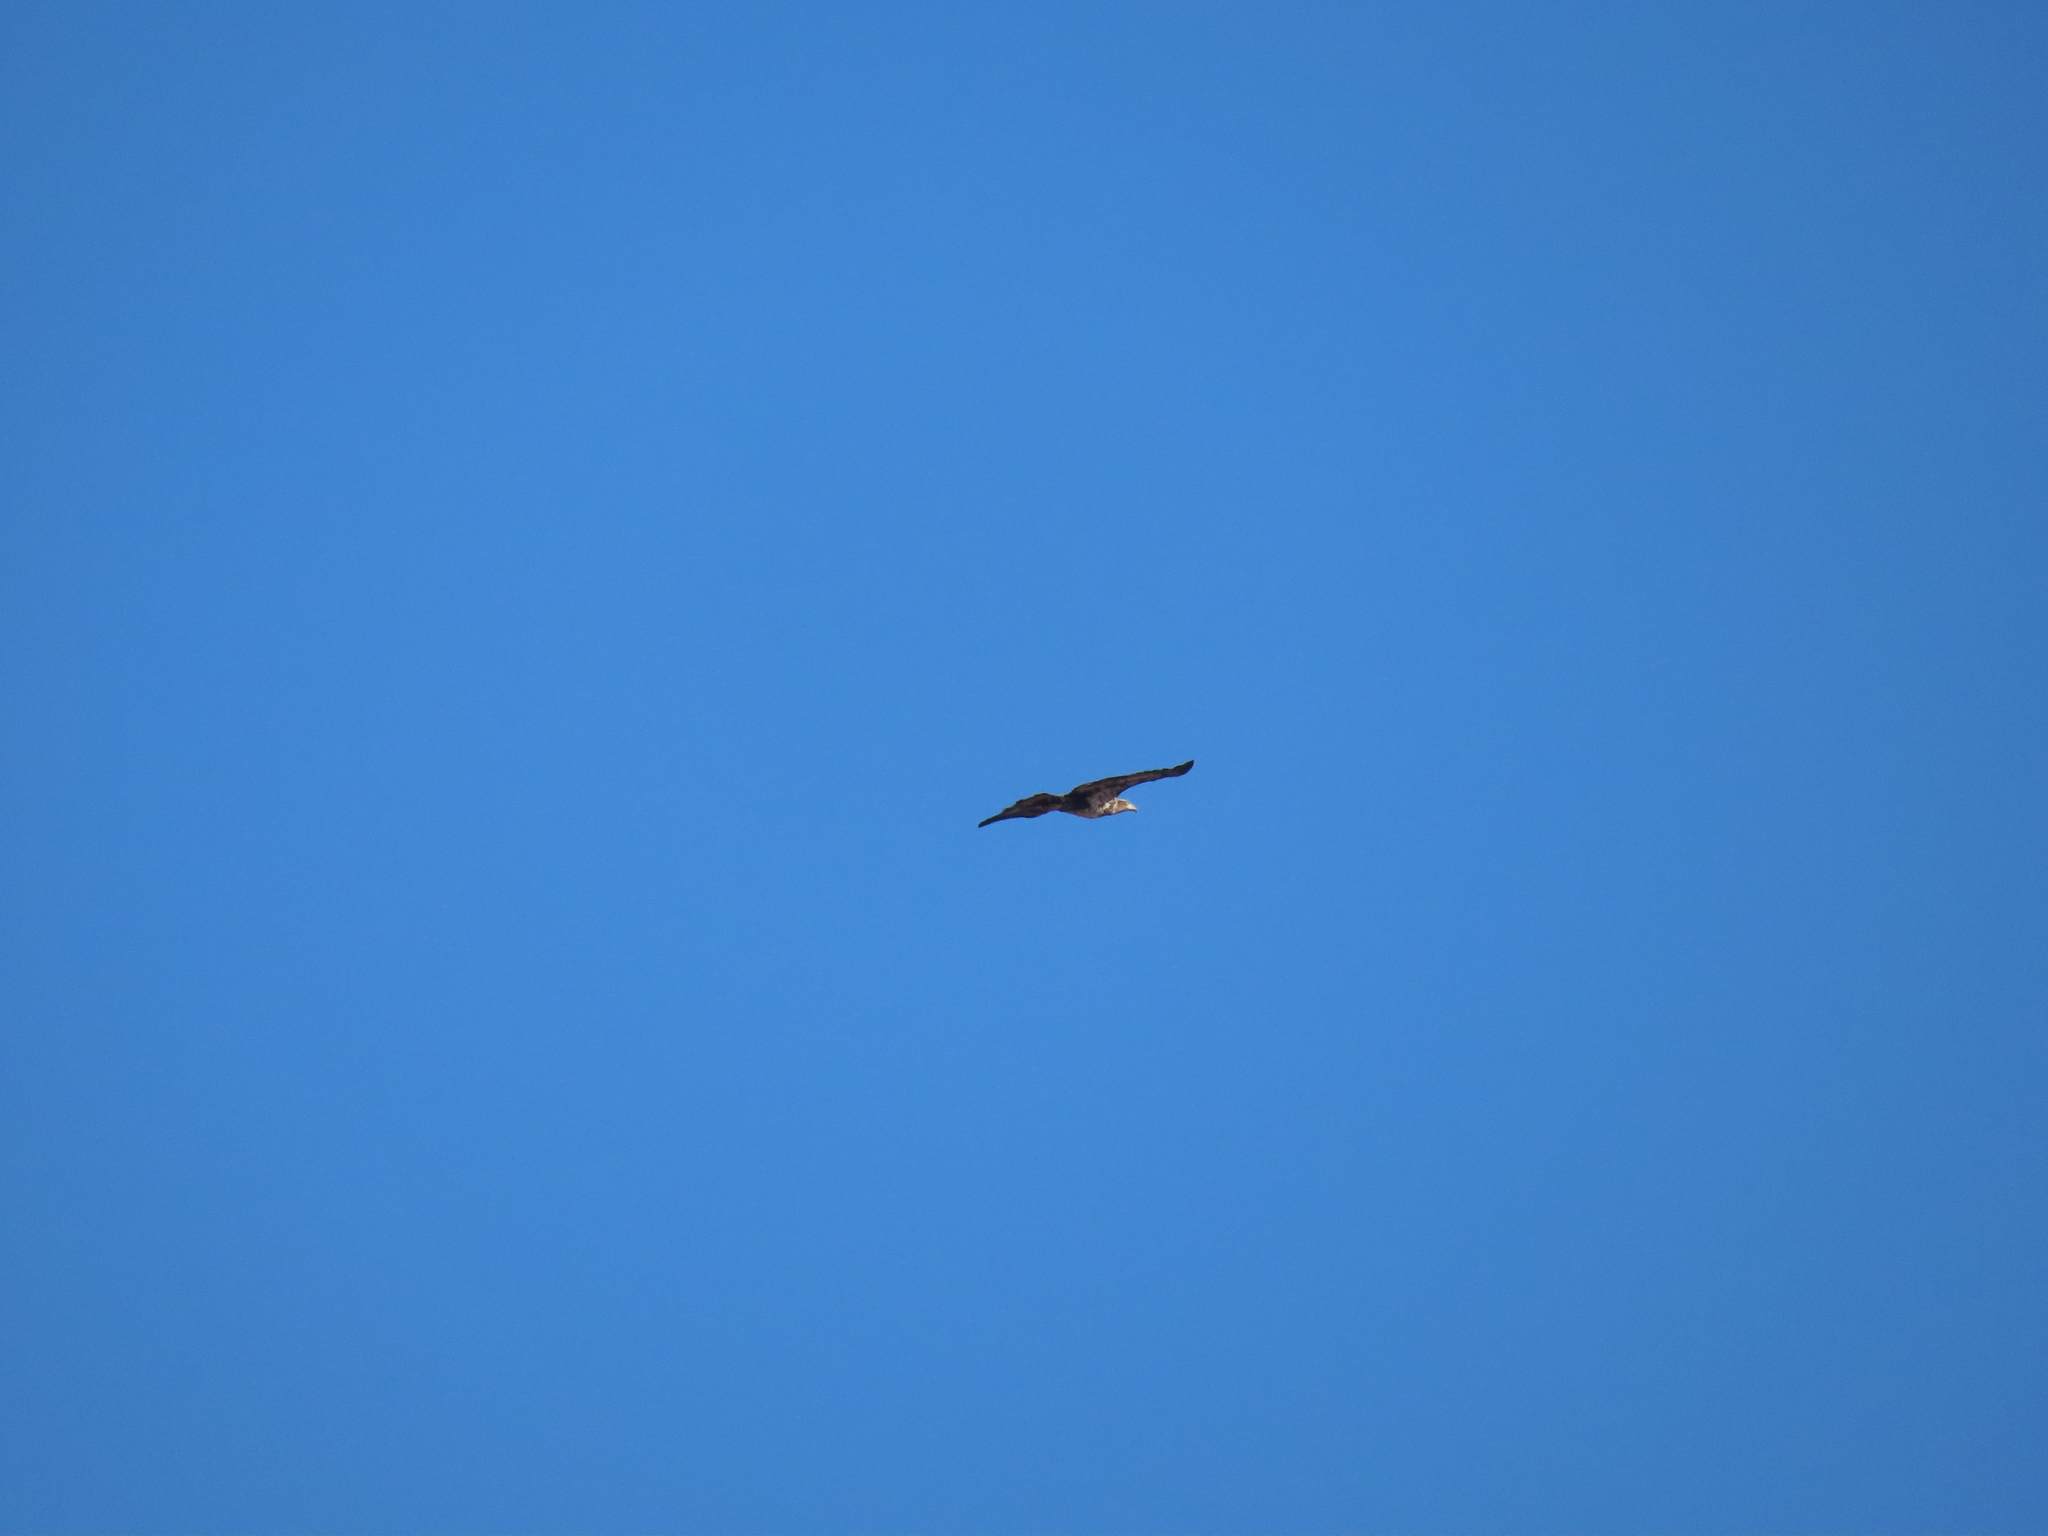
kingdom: Animalia
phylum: Chordata
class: Aves
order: Accipitriformes
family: Accipitridae
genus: Haliaeetus
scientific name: Haliaeetus leucocephalus
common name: Bald eagle
